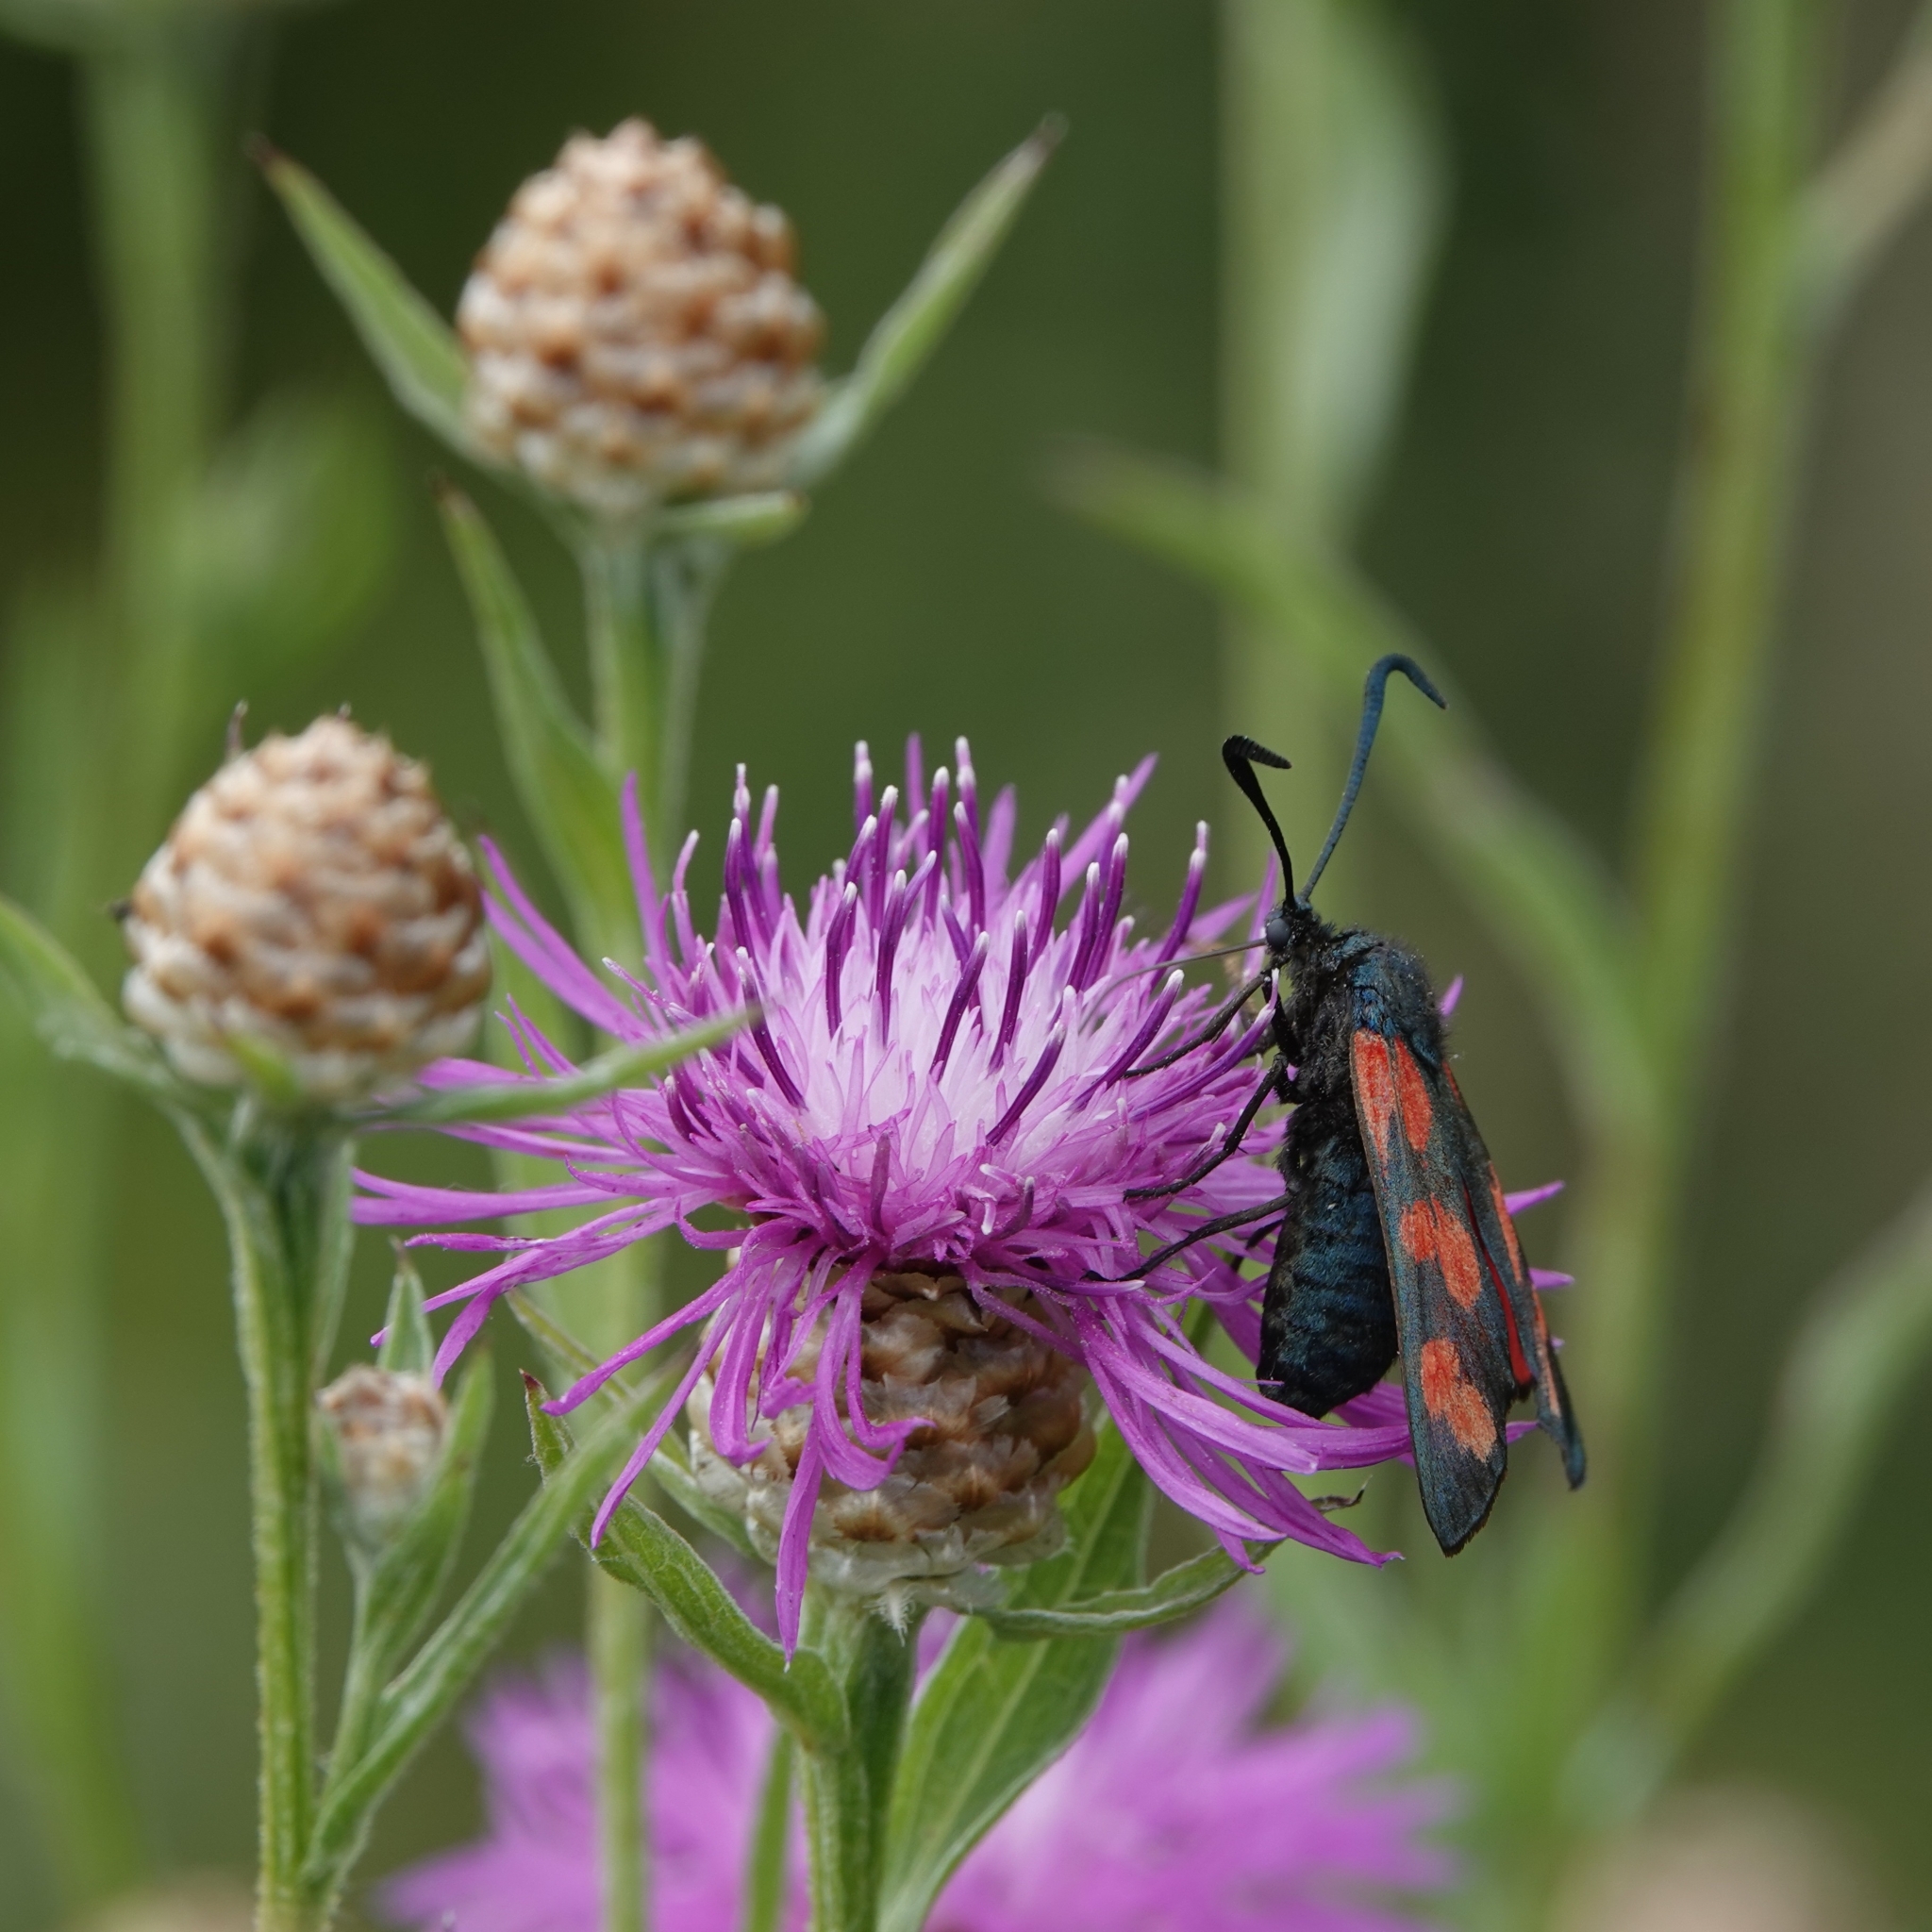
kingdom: Animalia
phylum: Arthropoda
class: Insecta
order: Lepidoptera
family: Zygaenidae
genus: Zygaena
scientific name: Zygaena filipendulae
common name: Six-spot burnet
